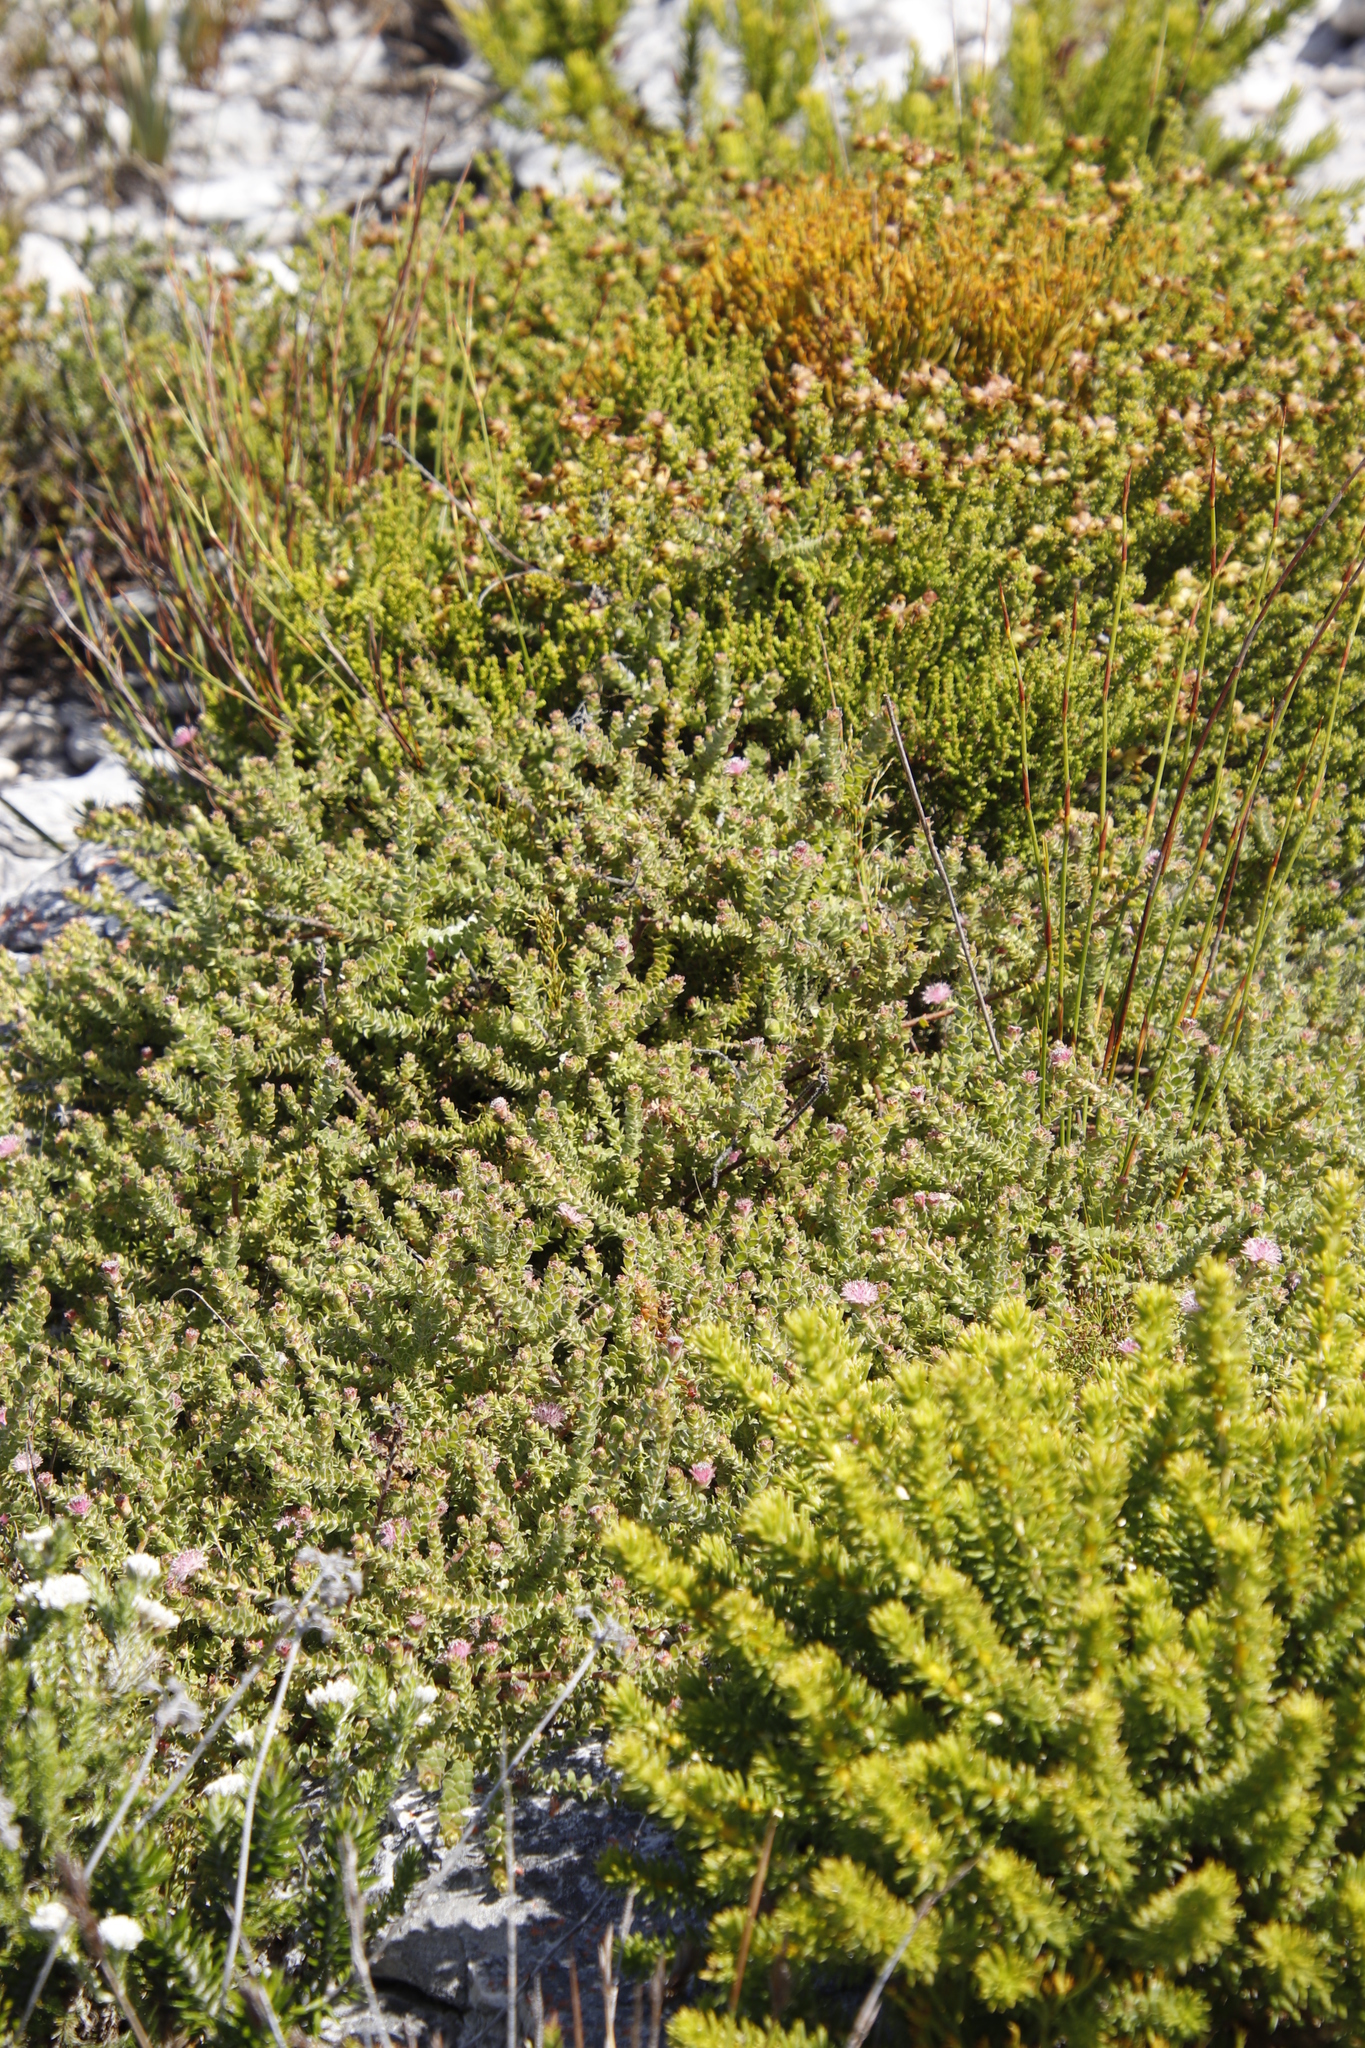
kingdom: Plantae
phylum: Tracheophyta
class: Magnoliopsida
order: Proteales
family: Proteaceae
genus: Diastella
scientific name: Diastella divaricata
